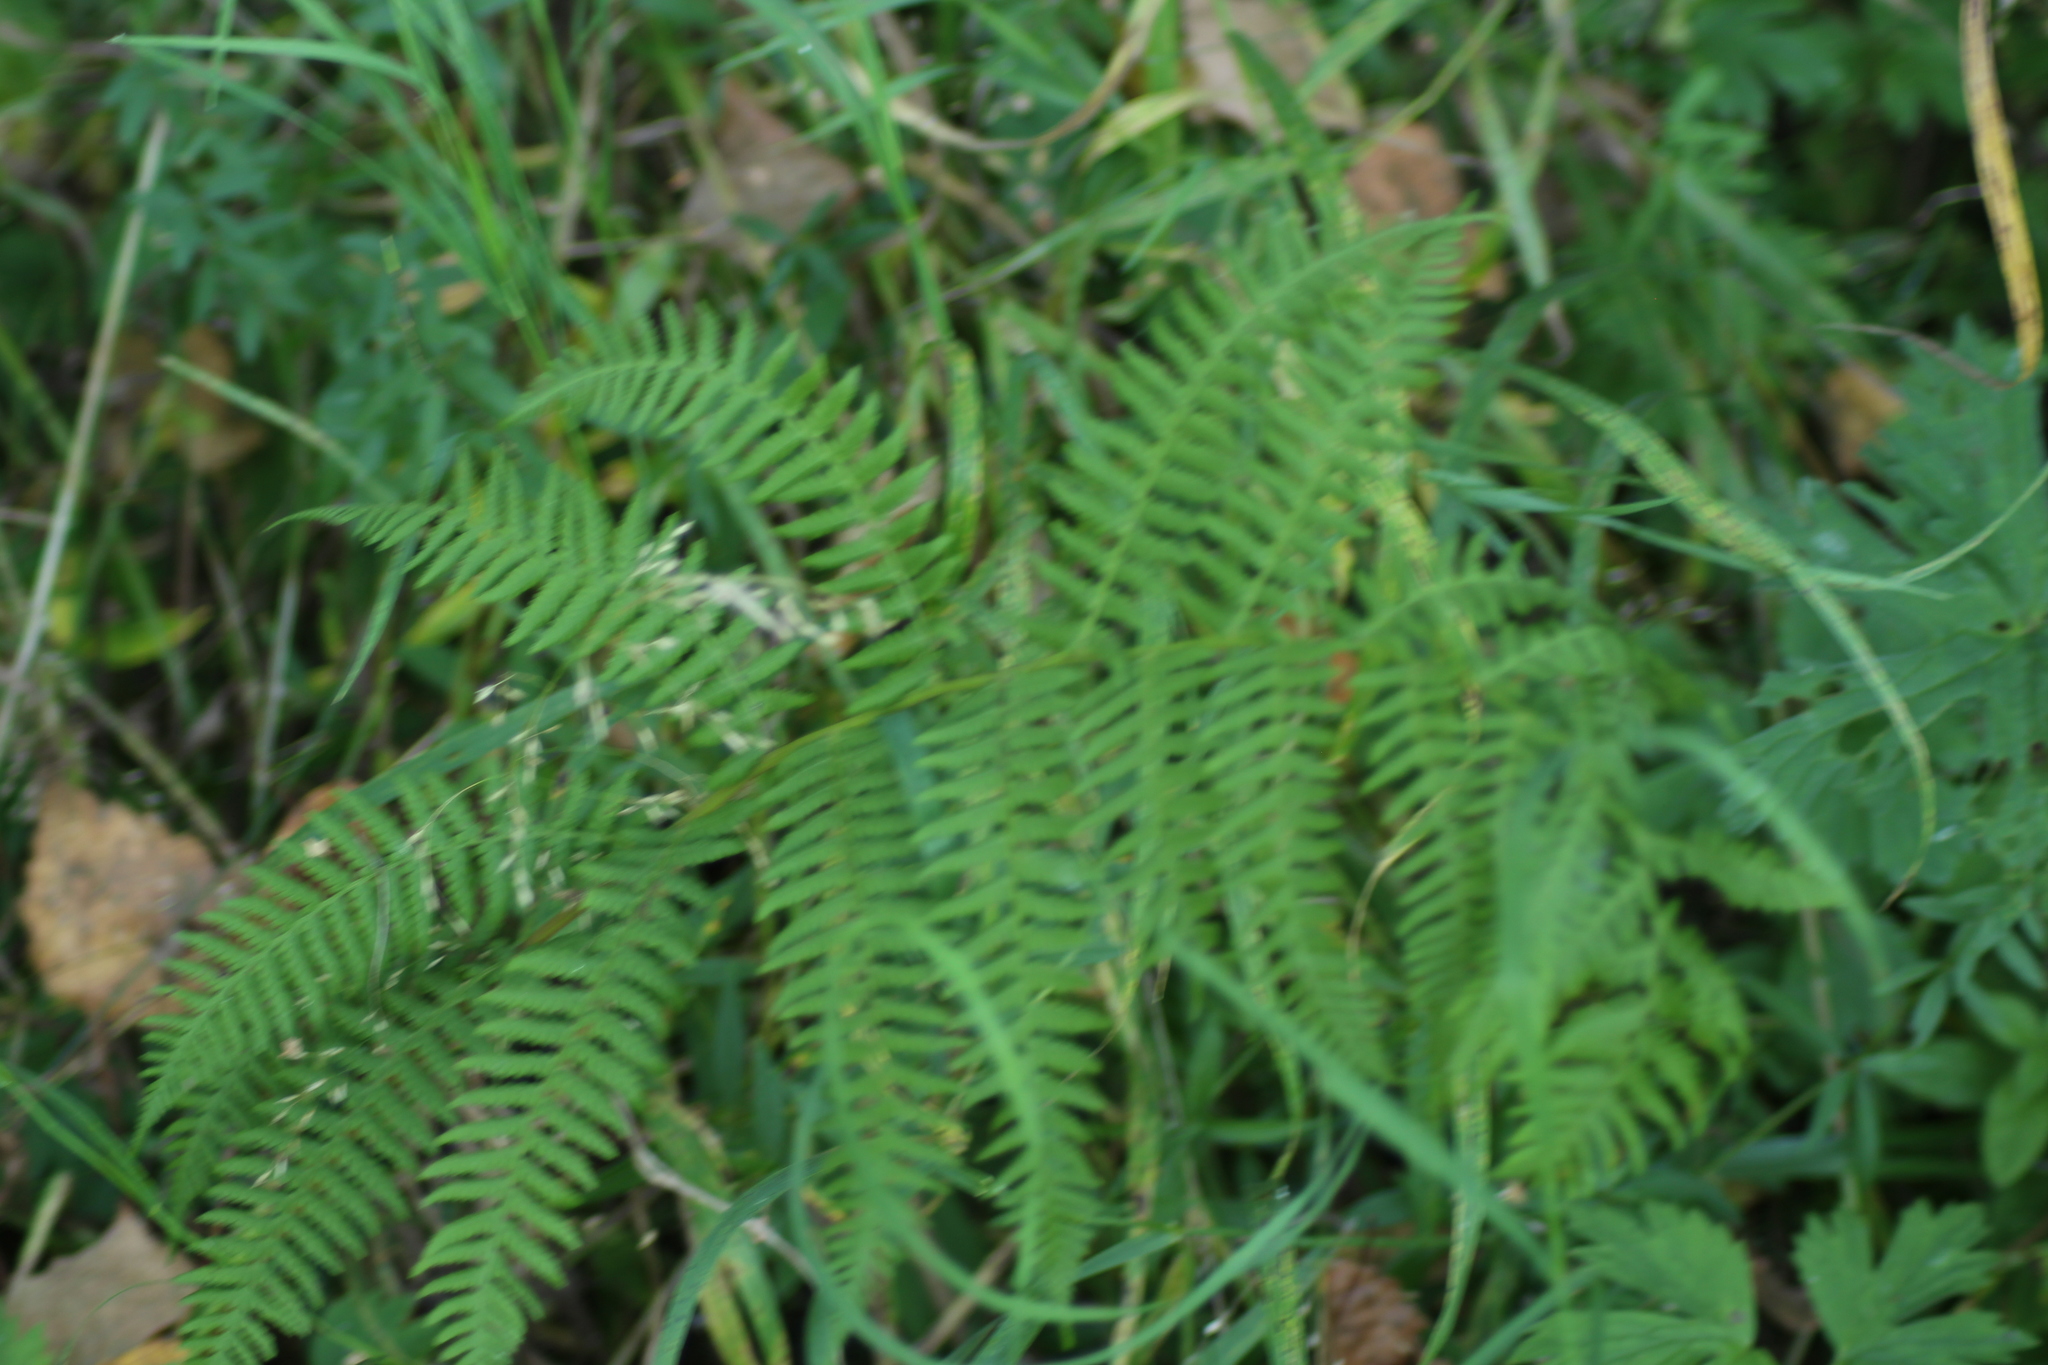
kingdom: Plantae
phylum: Tracheophyta
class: Polypodiopsida
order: Polypodiales
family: Athyriaceae
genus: Athyrium
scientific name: Athyrium filix-femina
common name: Lady fern
